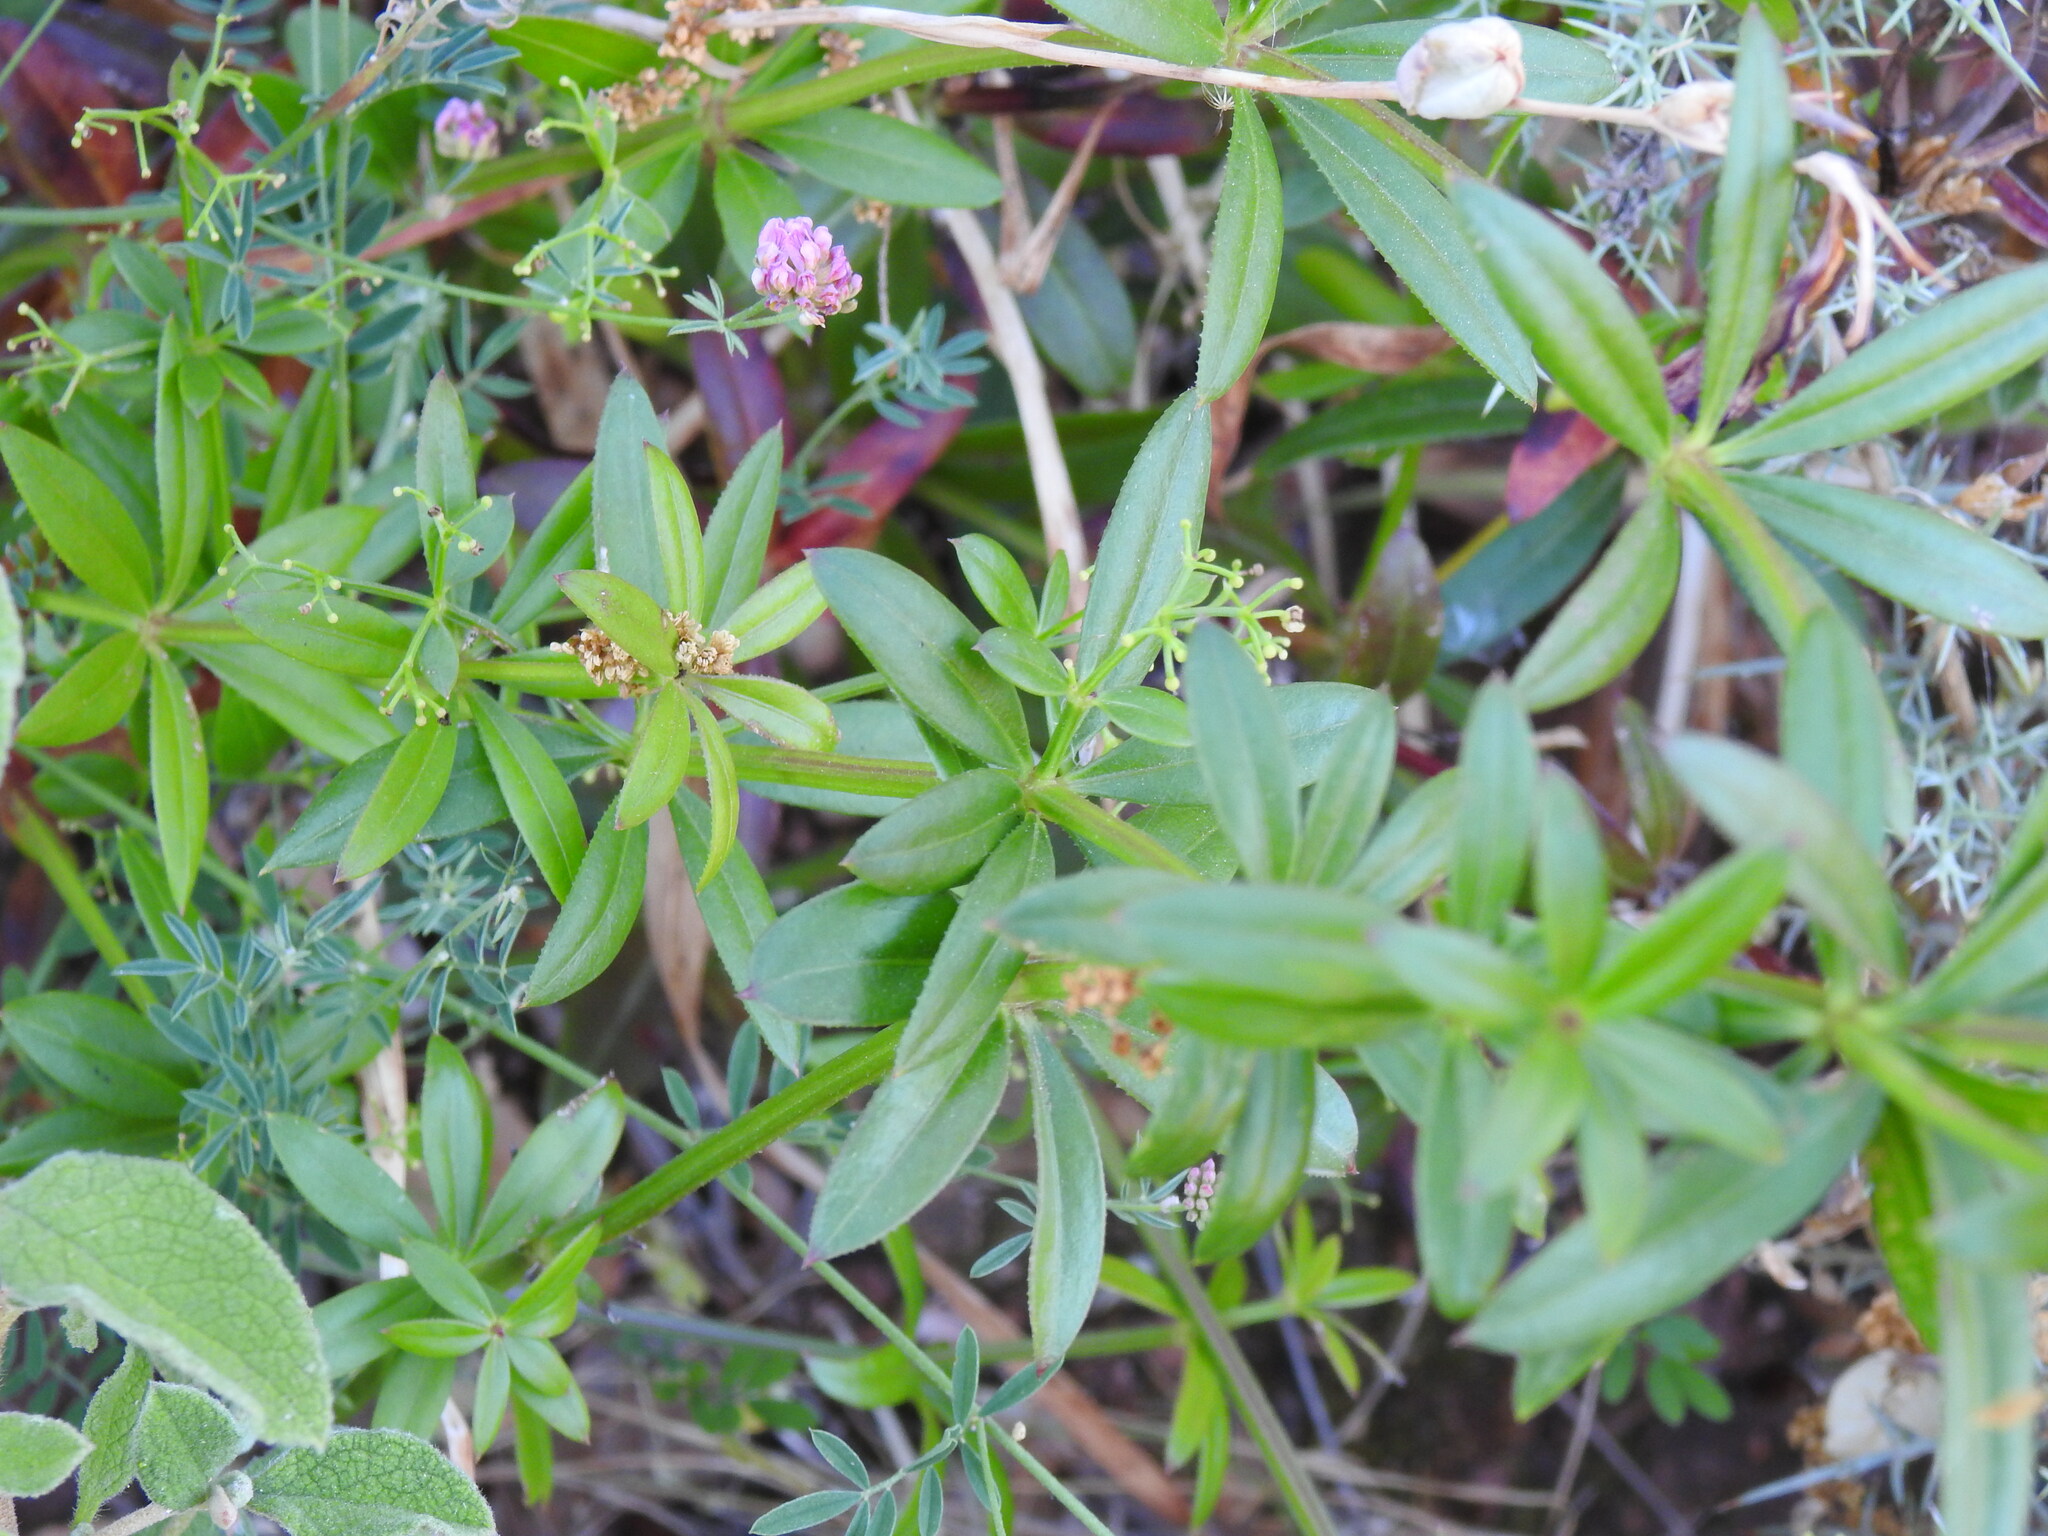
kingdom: Plantae
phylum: Tracheophyta
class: Magnoliopsida
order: Gentianales
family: Rubiaceae
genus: Rubia
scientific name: Rubia peregrina
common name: Wild madder
